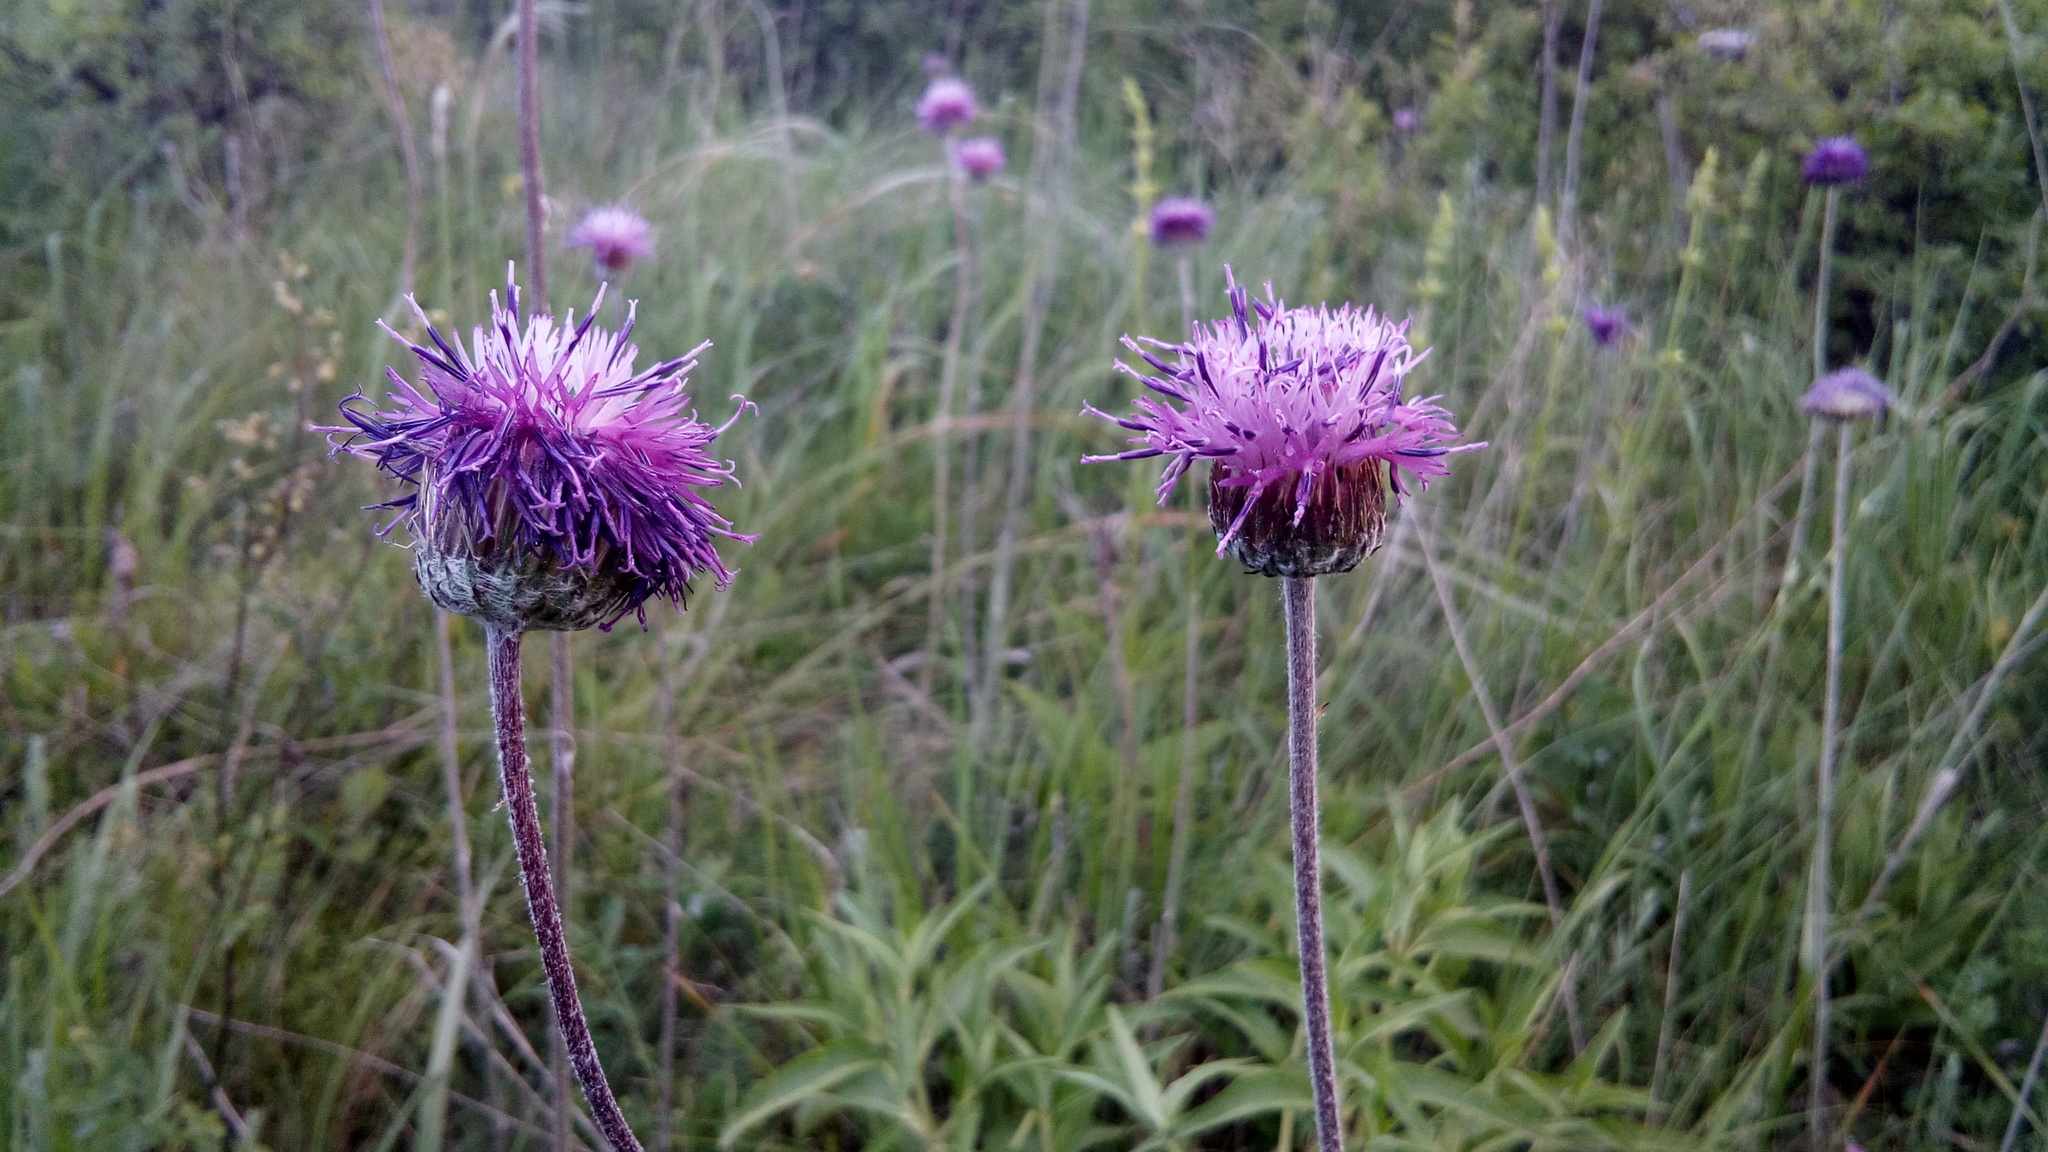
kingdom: Plantae
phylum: Tracheophyta
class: Magnoliopsida
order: Asterales
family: Asteraceae
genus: Jurinea
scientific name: Jurinea arachnoidea
